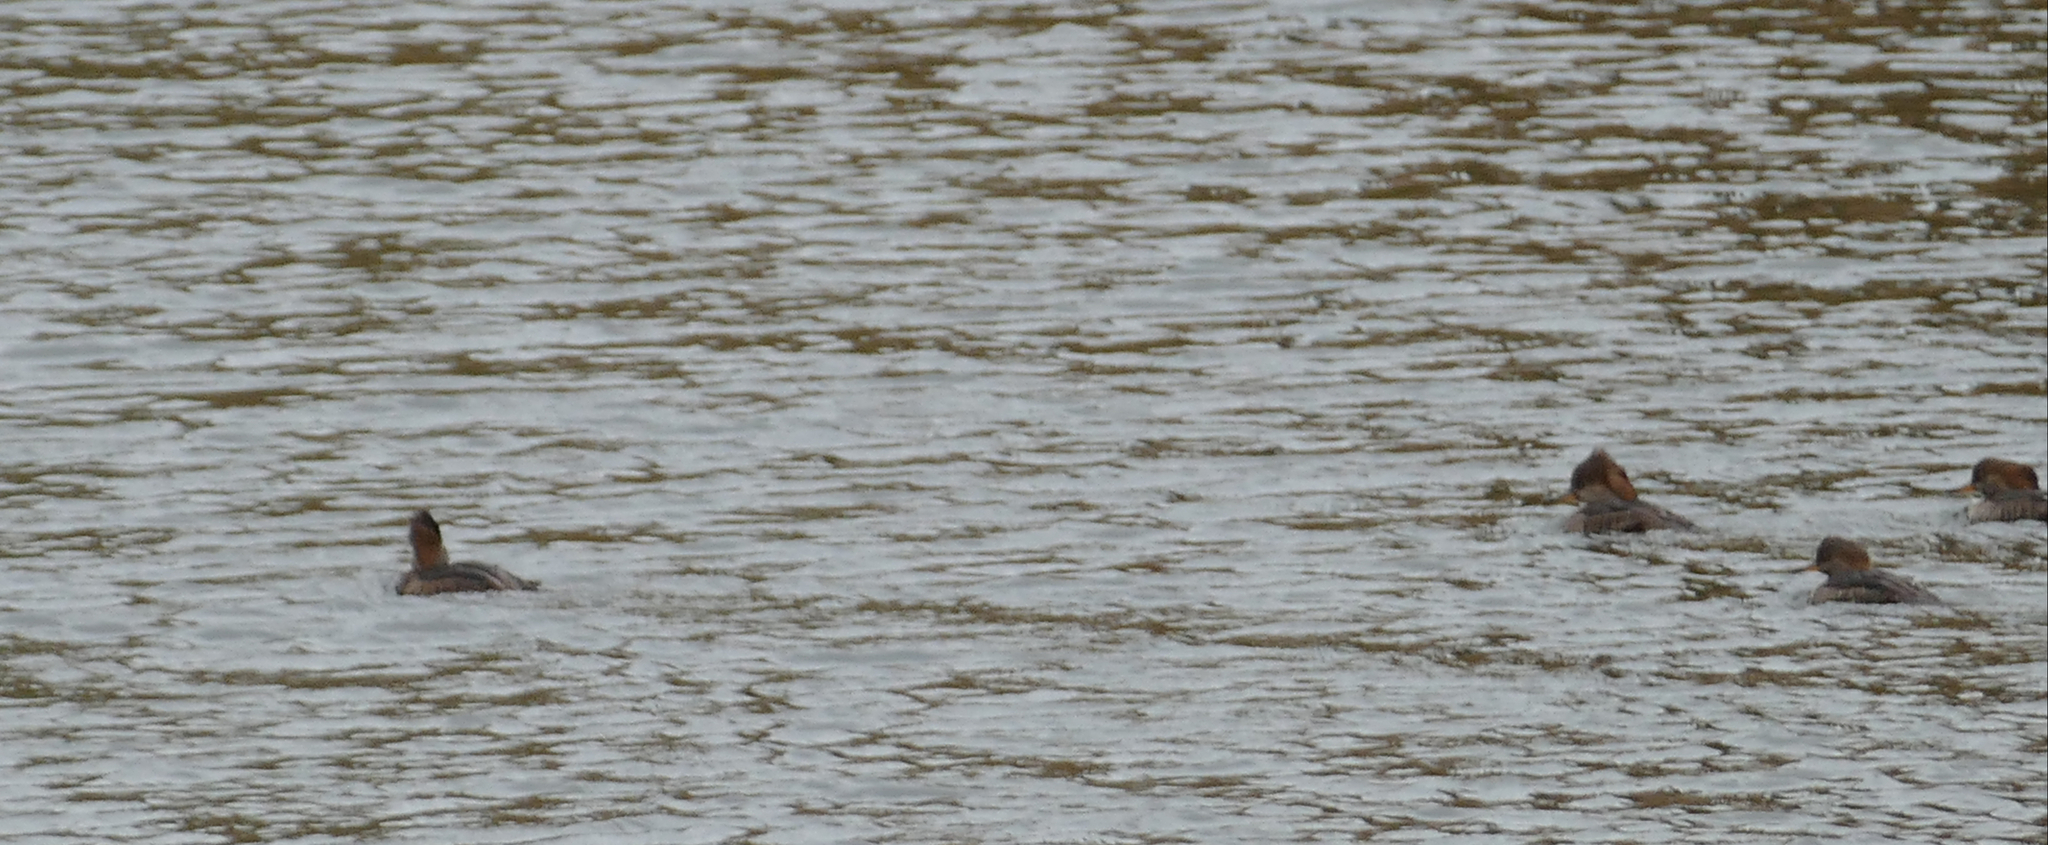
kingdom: Animalia
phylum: Chordata
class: Aves
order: Anseriformes
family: Anatidae
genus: Lophodytes
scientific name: Lophodytes cucullatus
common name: Hooded merganser
